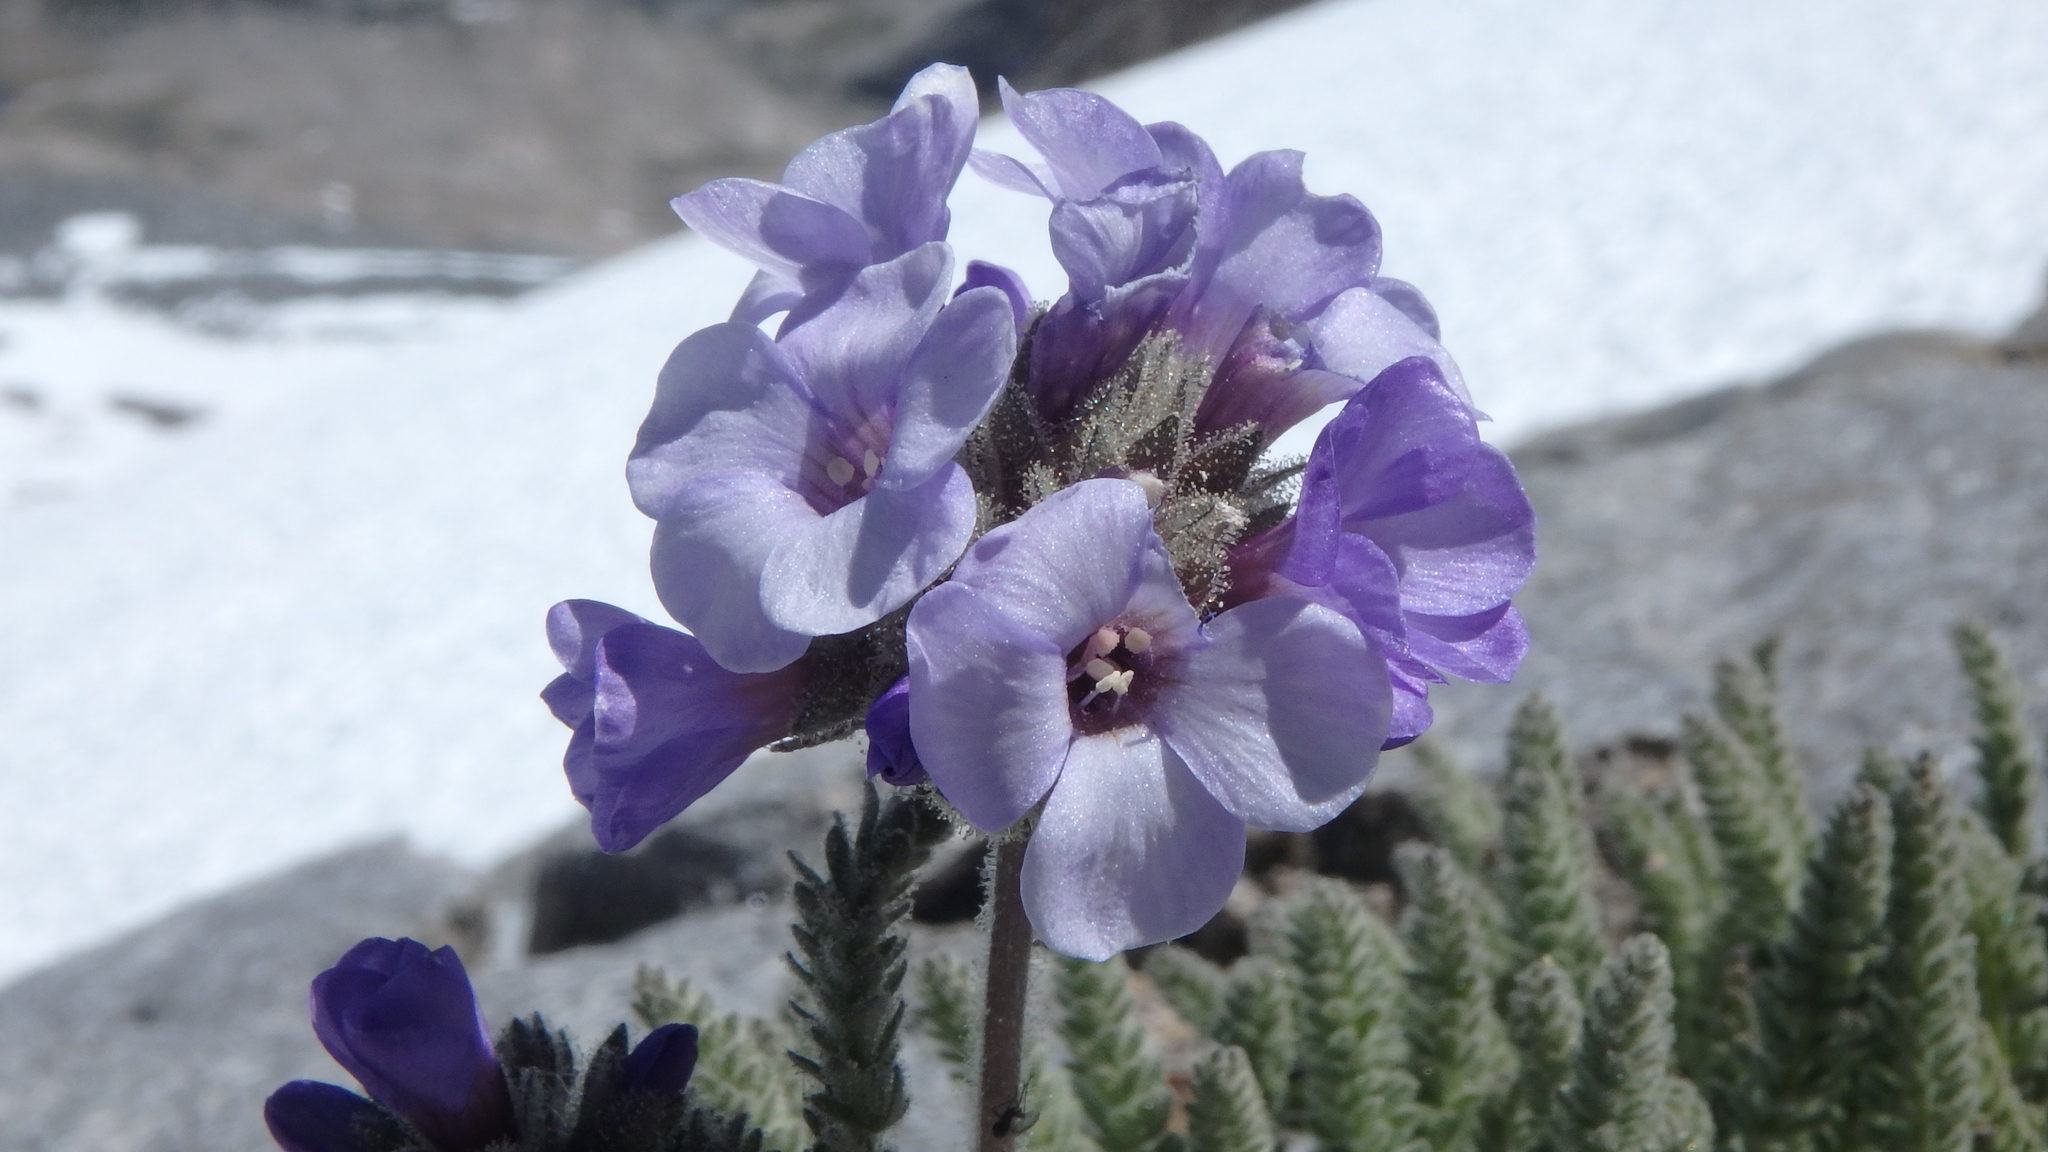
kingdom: Plantae
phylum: Tracheophyta
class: Magnoliopsida
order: Ericales
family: Polemoniaceae
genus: Polemonium
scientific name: Polemonium eximium
